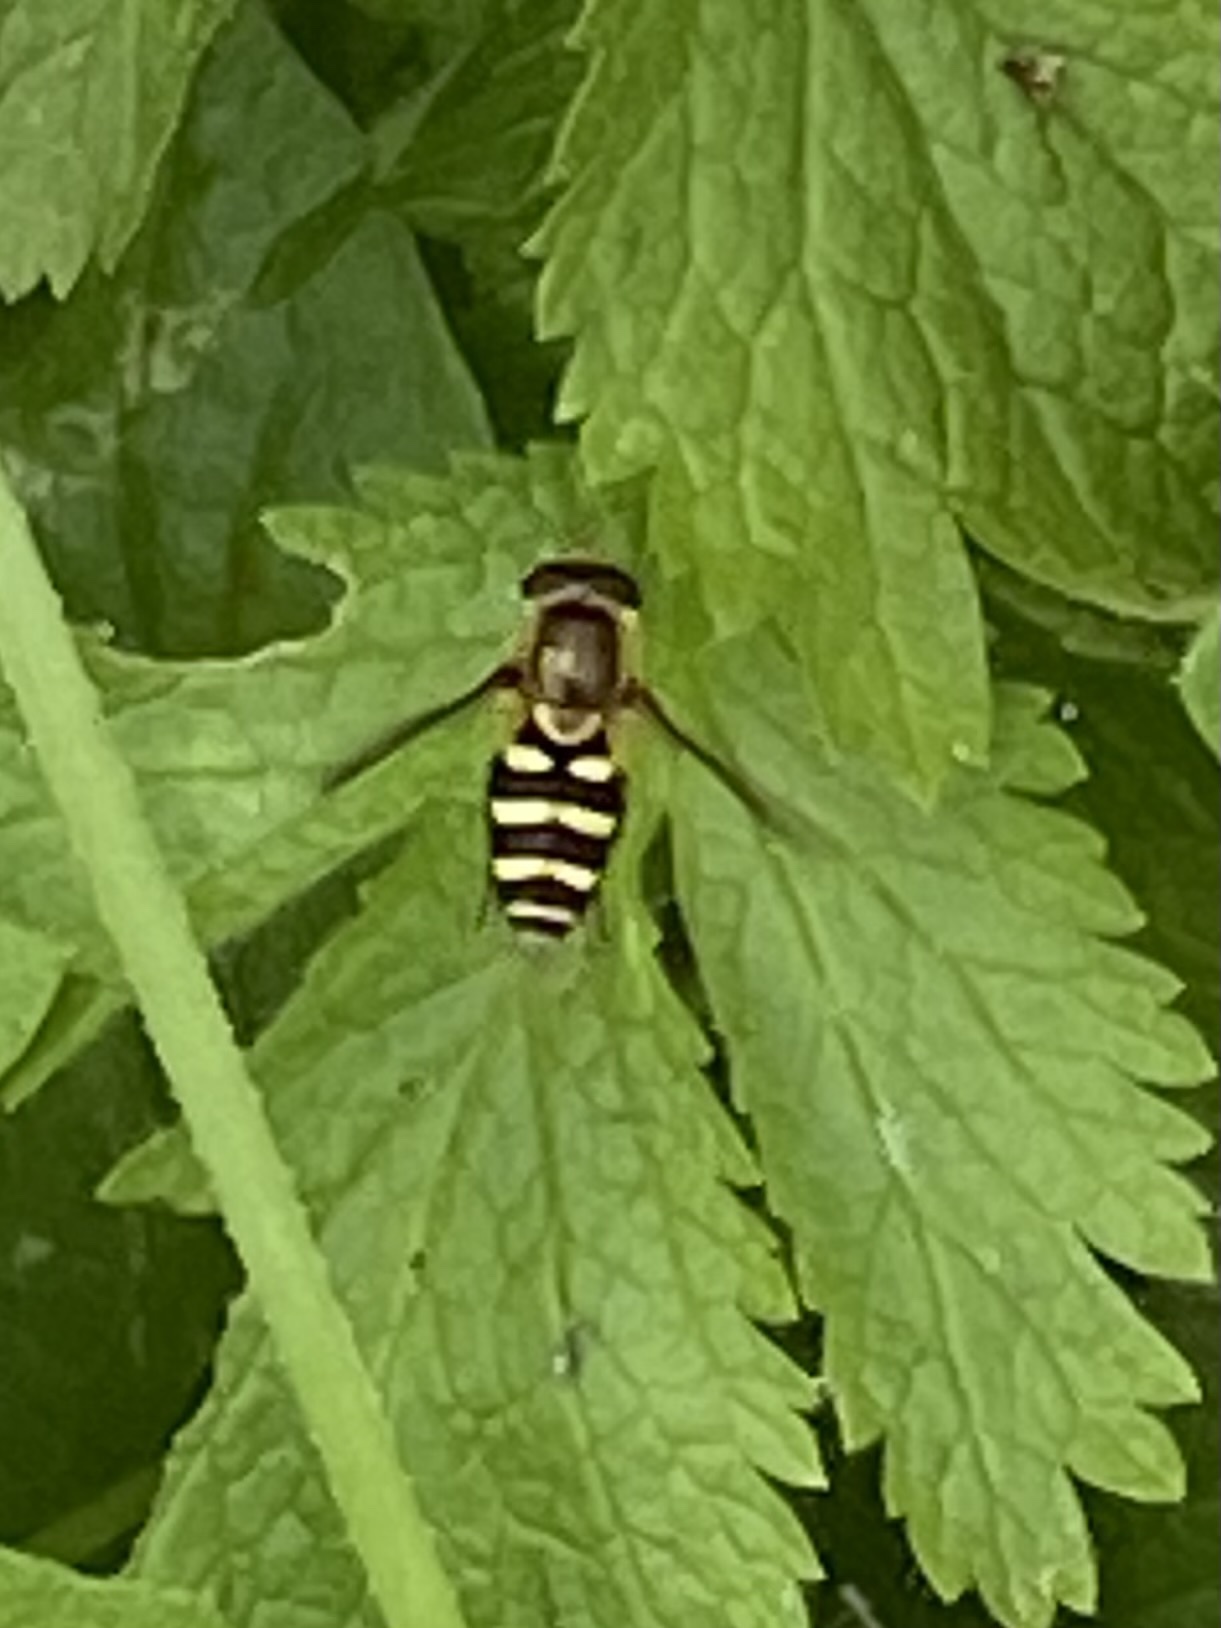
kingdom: Animalia
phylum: Arthropoda
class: Insecta
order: Diptera
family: Syrphidae
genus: Syrphus
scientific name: Syrphus opinator
